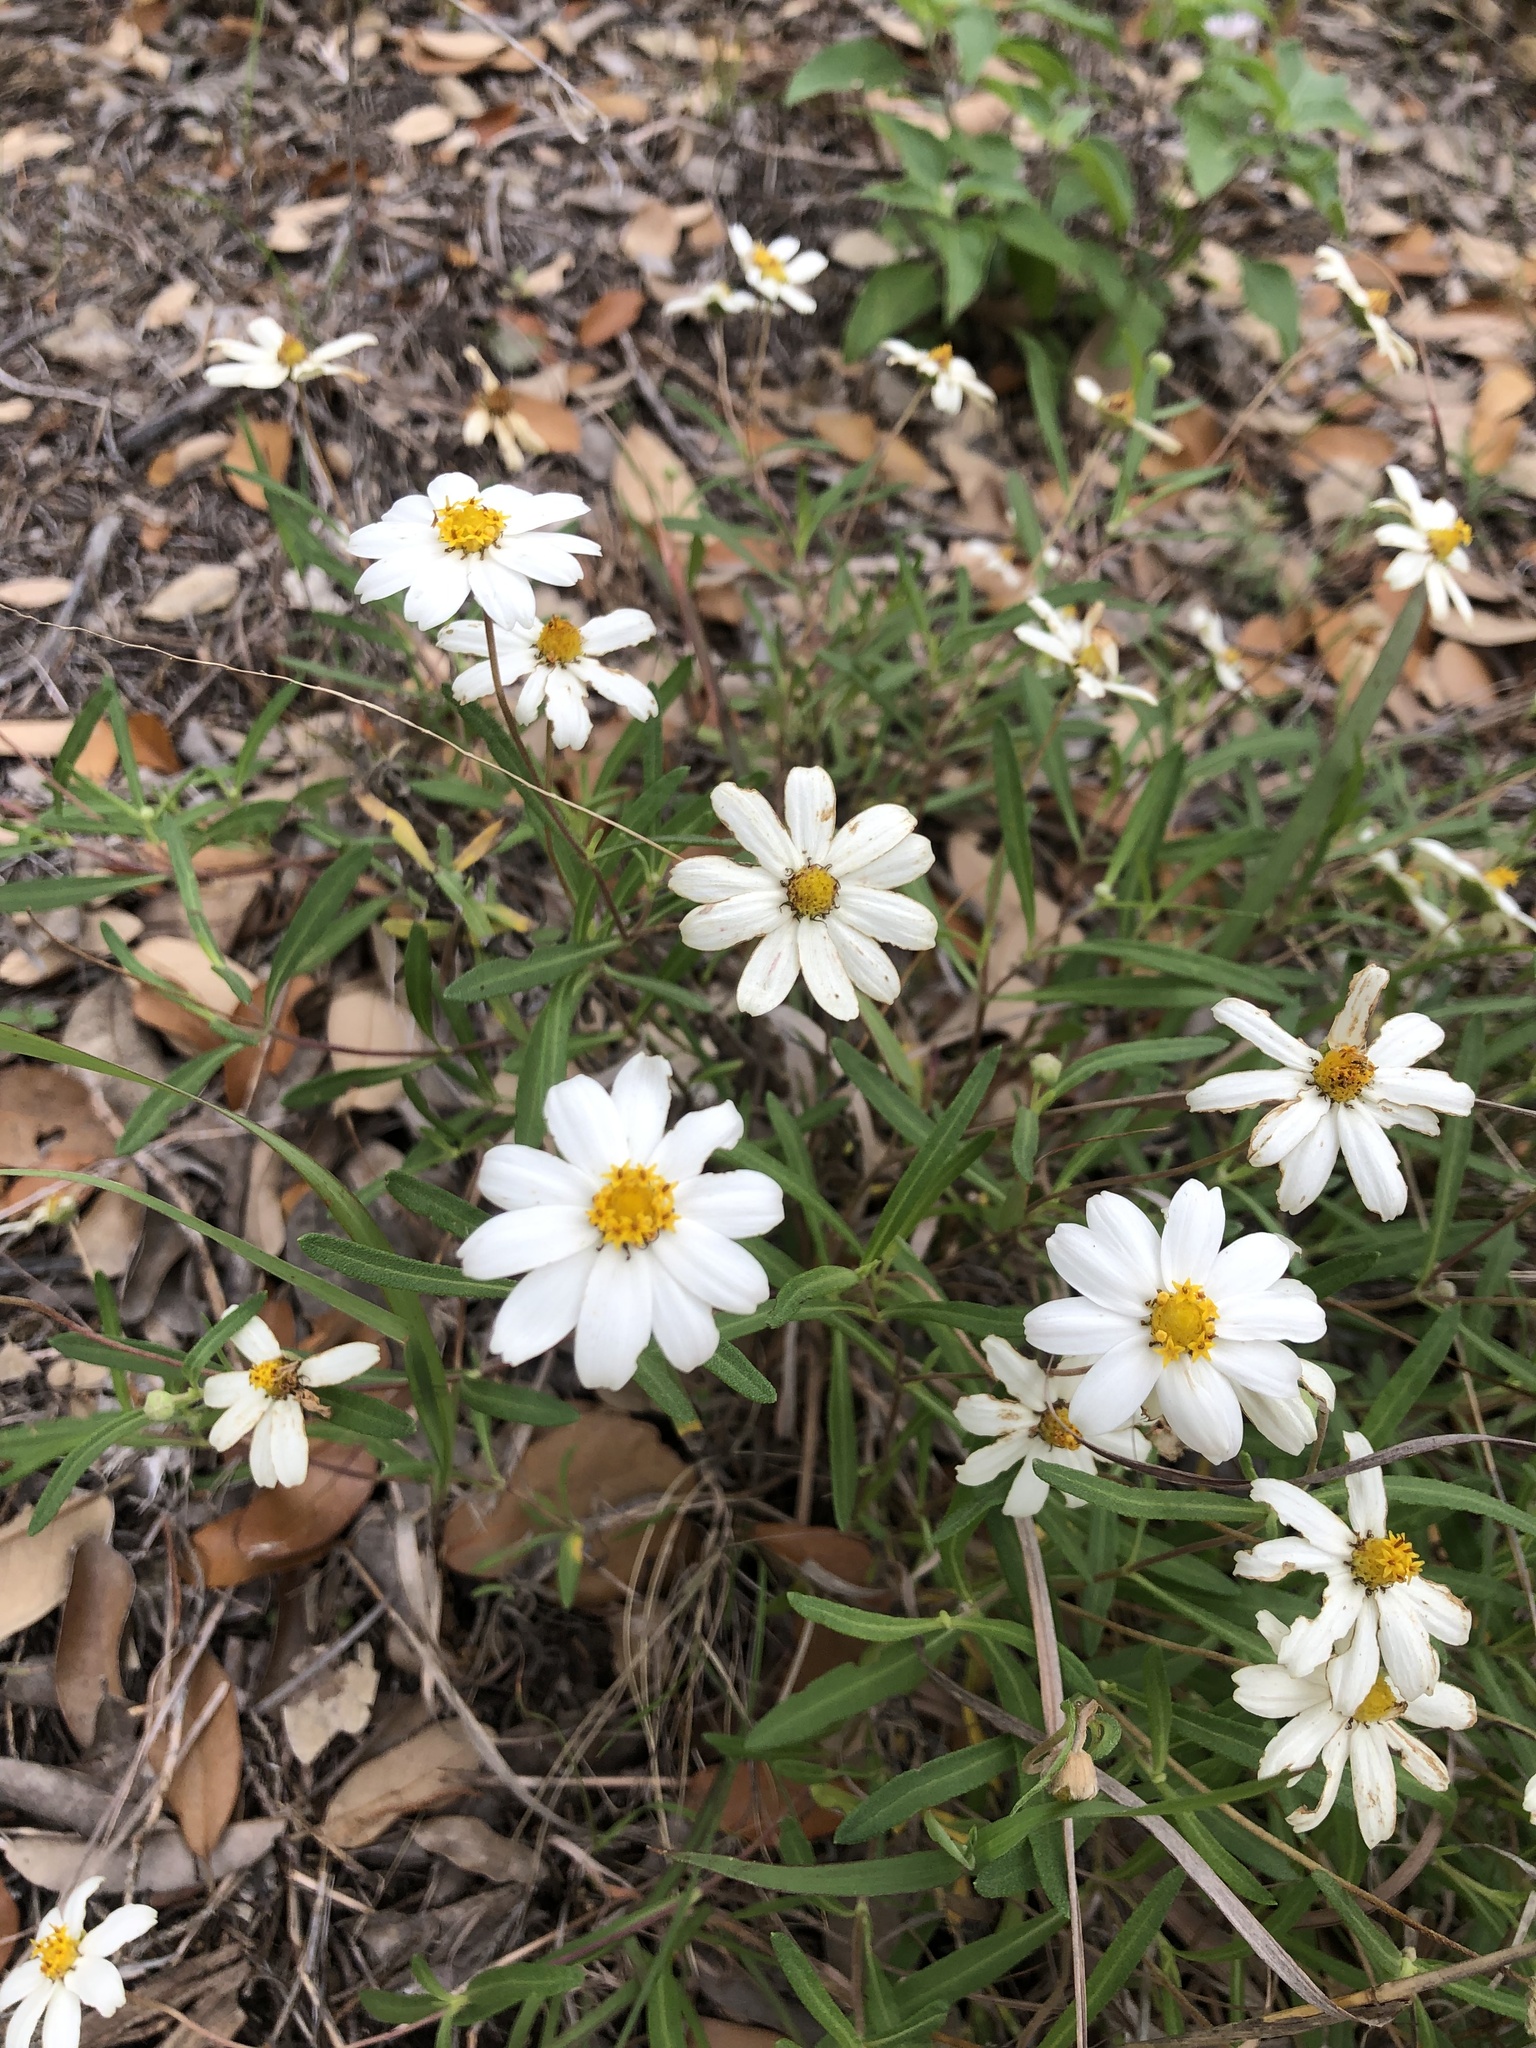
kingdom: Plantae
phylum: Tracheophyta
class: Magnoliopsida
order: Asterales
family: Asteraceae
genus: Melampodium
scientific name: Melampodium leucanthum
